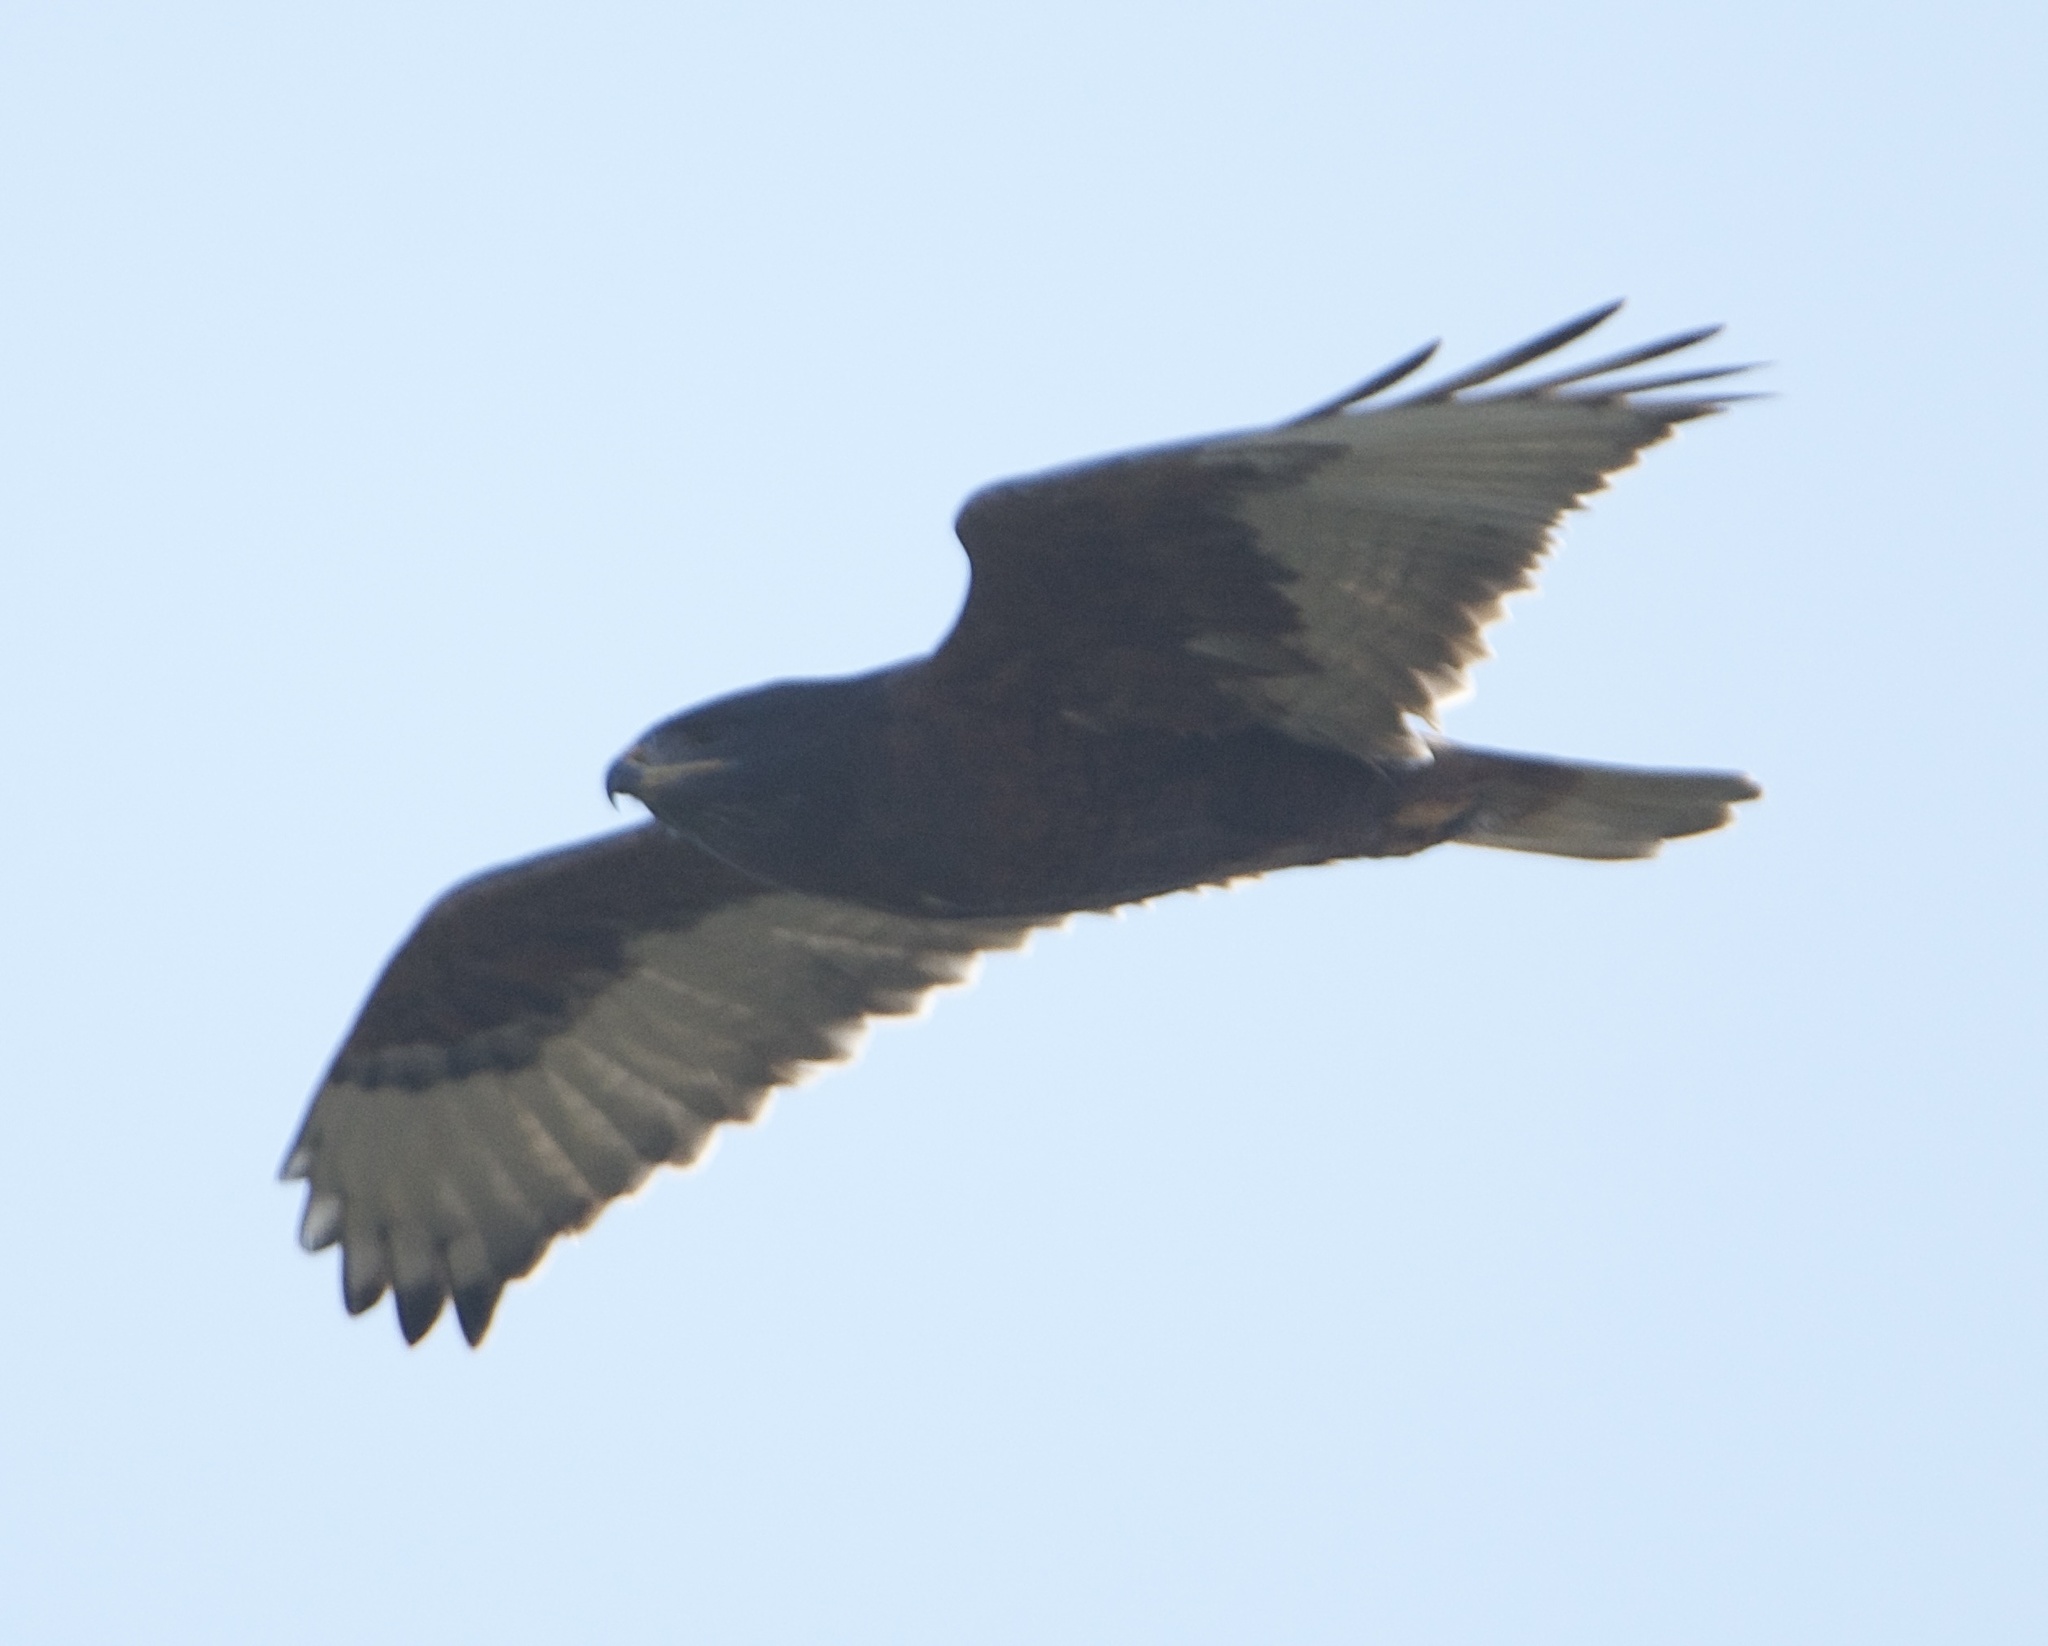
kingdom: Animalia
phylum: Chordata
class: Aves
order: Accipitriformes
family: Accipitridae
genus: Buteo
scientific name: Buteo regalis
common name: Ferruginous hawk
